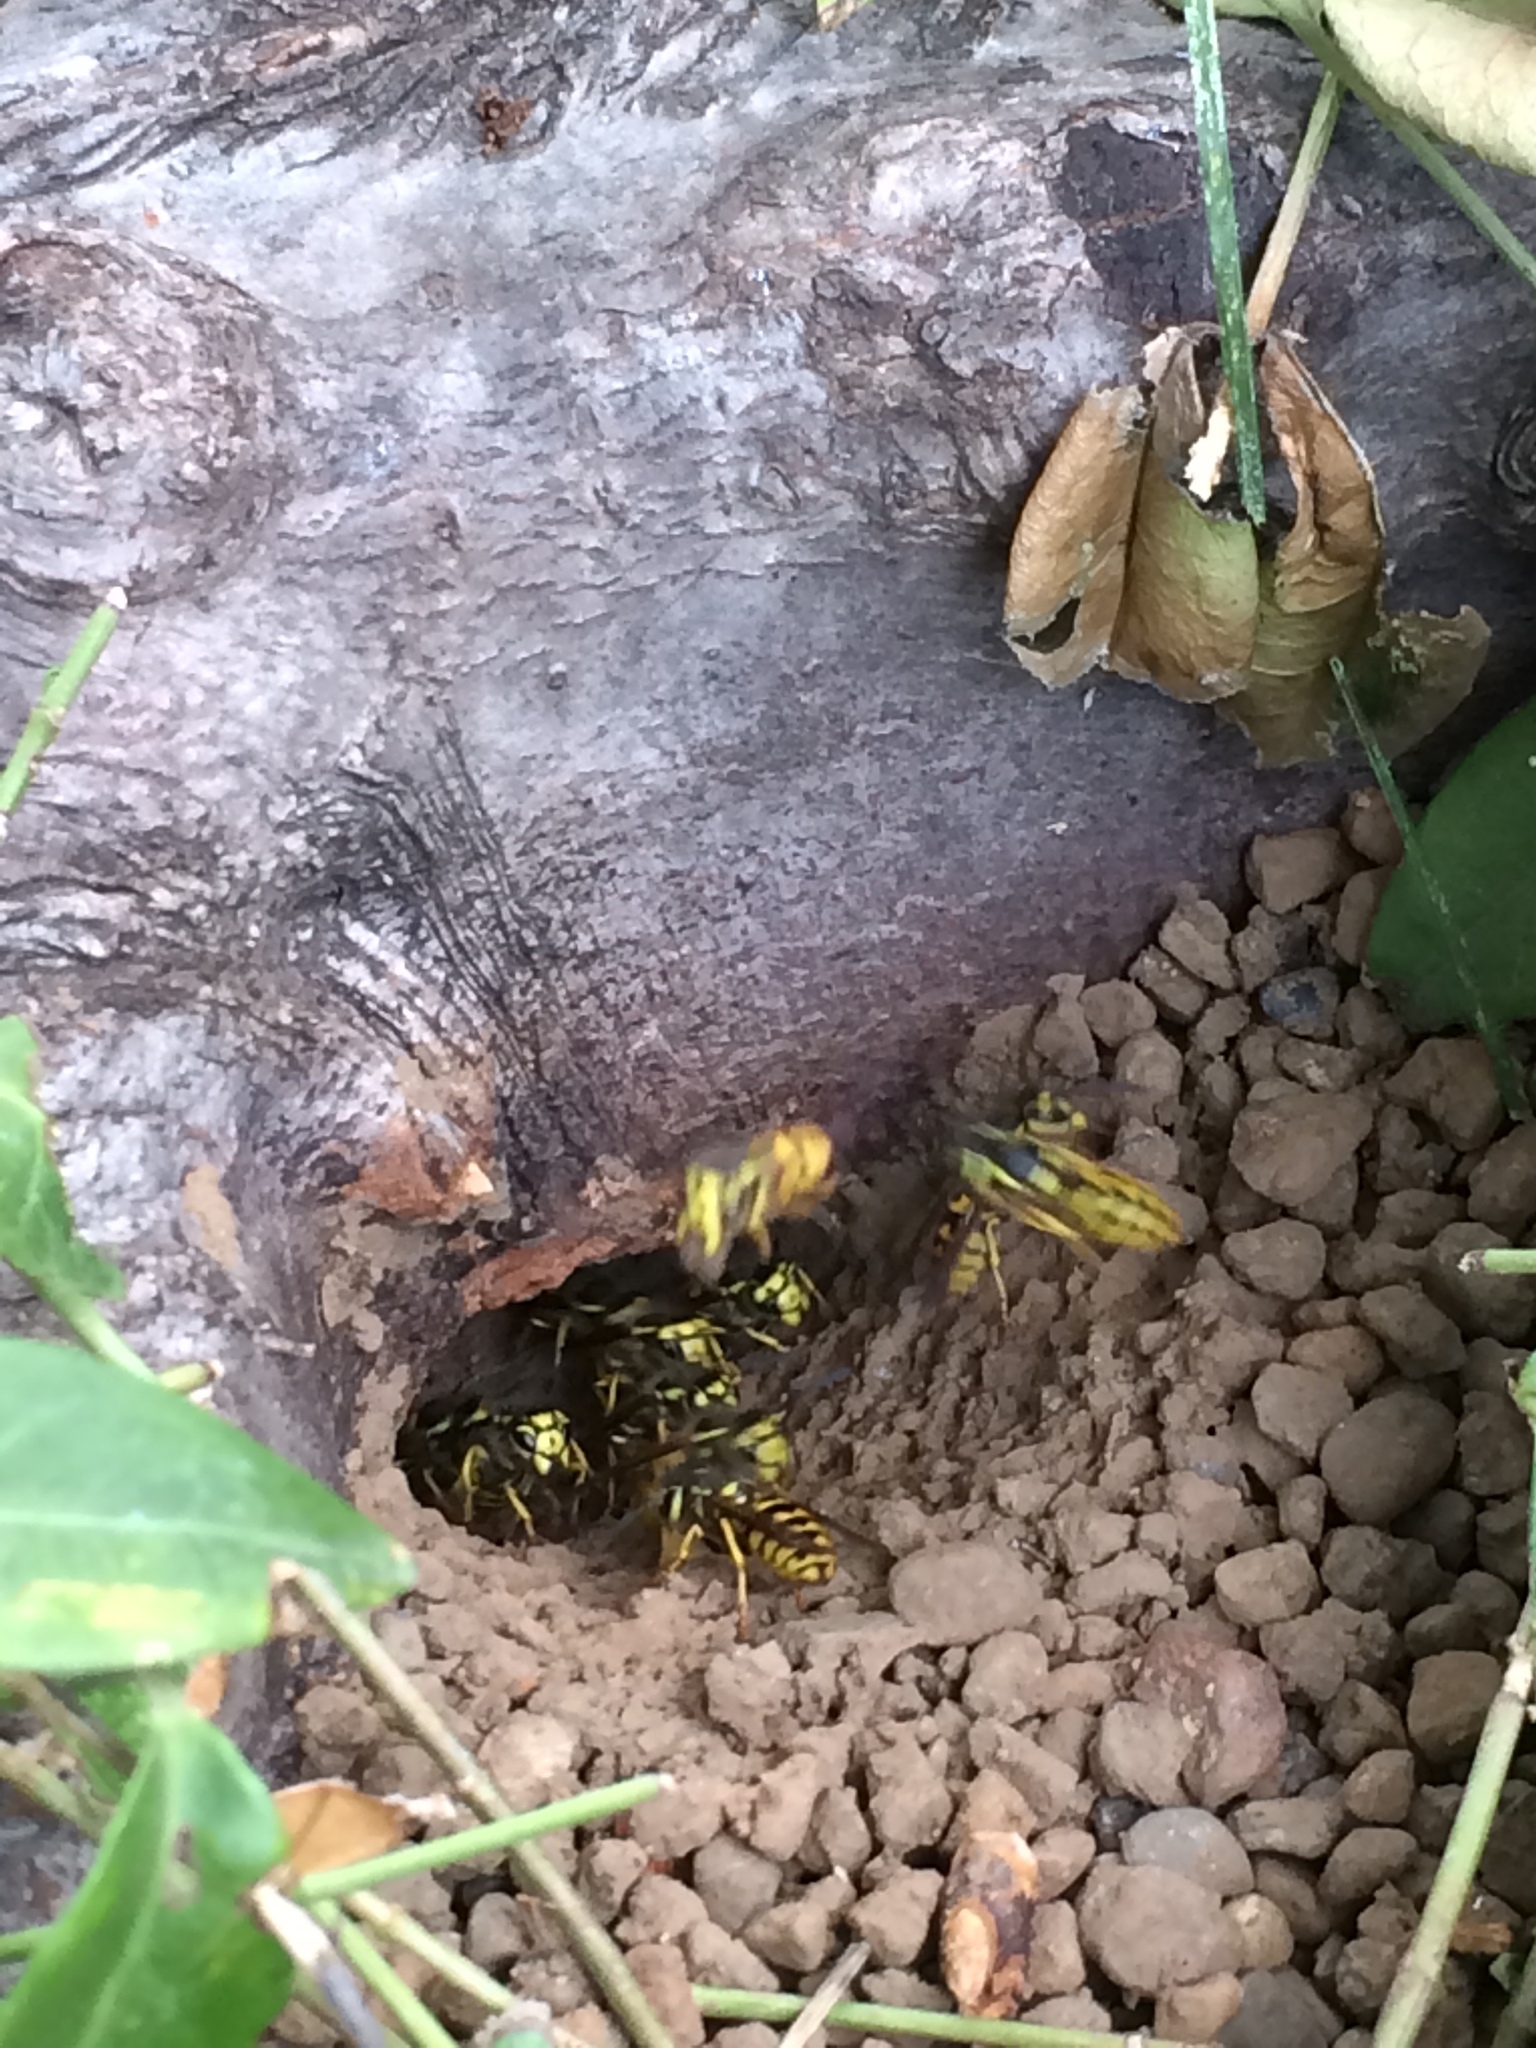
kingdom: Animalia
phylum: Arthropoda
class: Insecta
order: Hymenoptera
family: Vespidae
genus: Vespula
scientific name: Vespula pensylvanica
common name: Western yellowjacket
